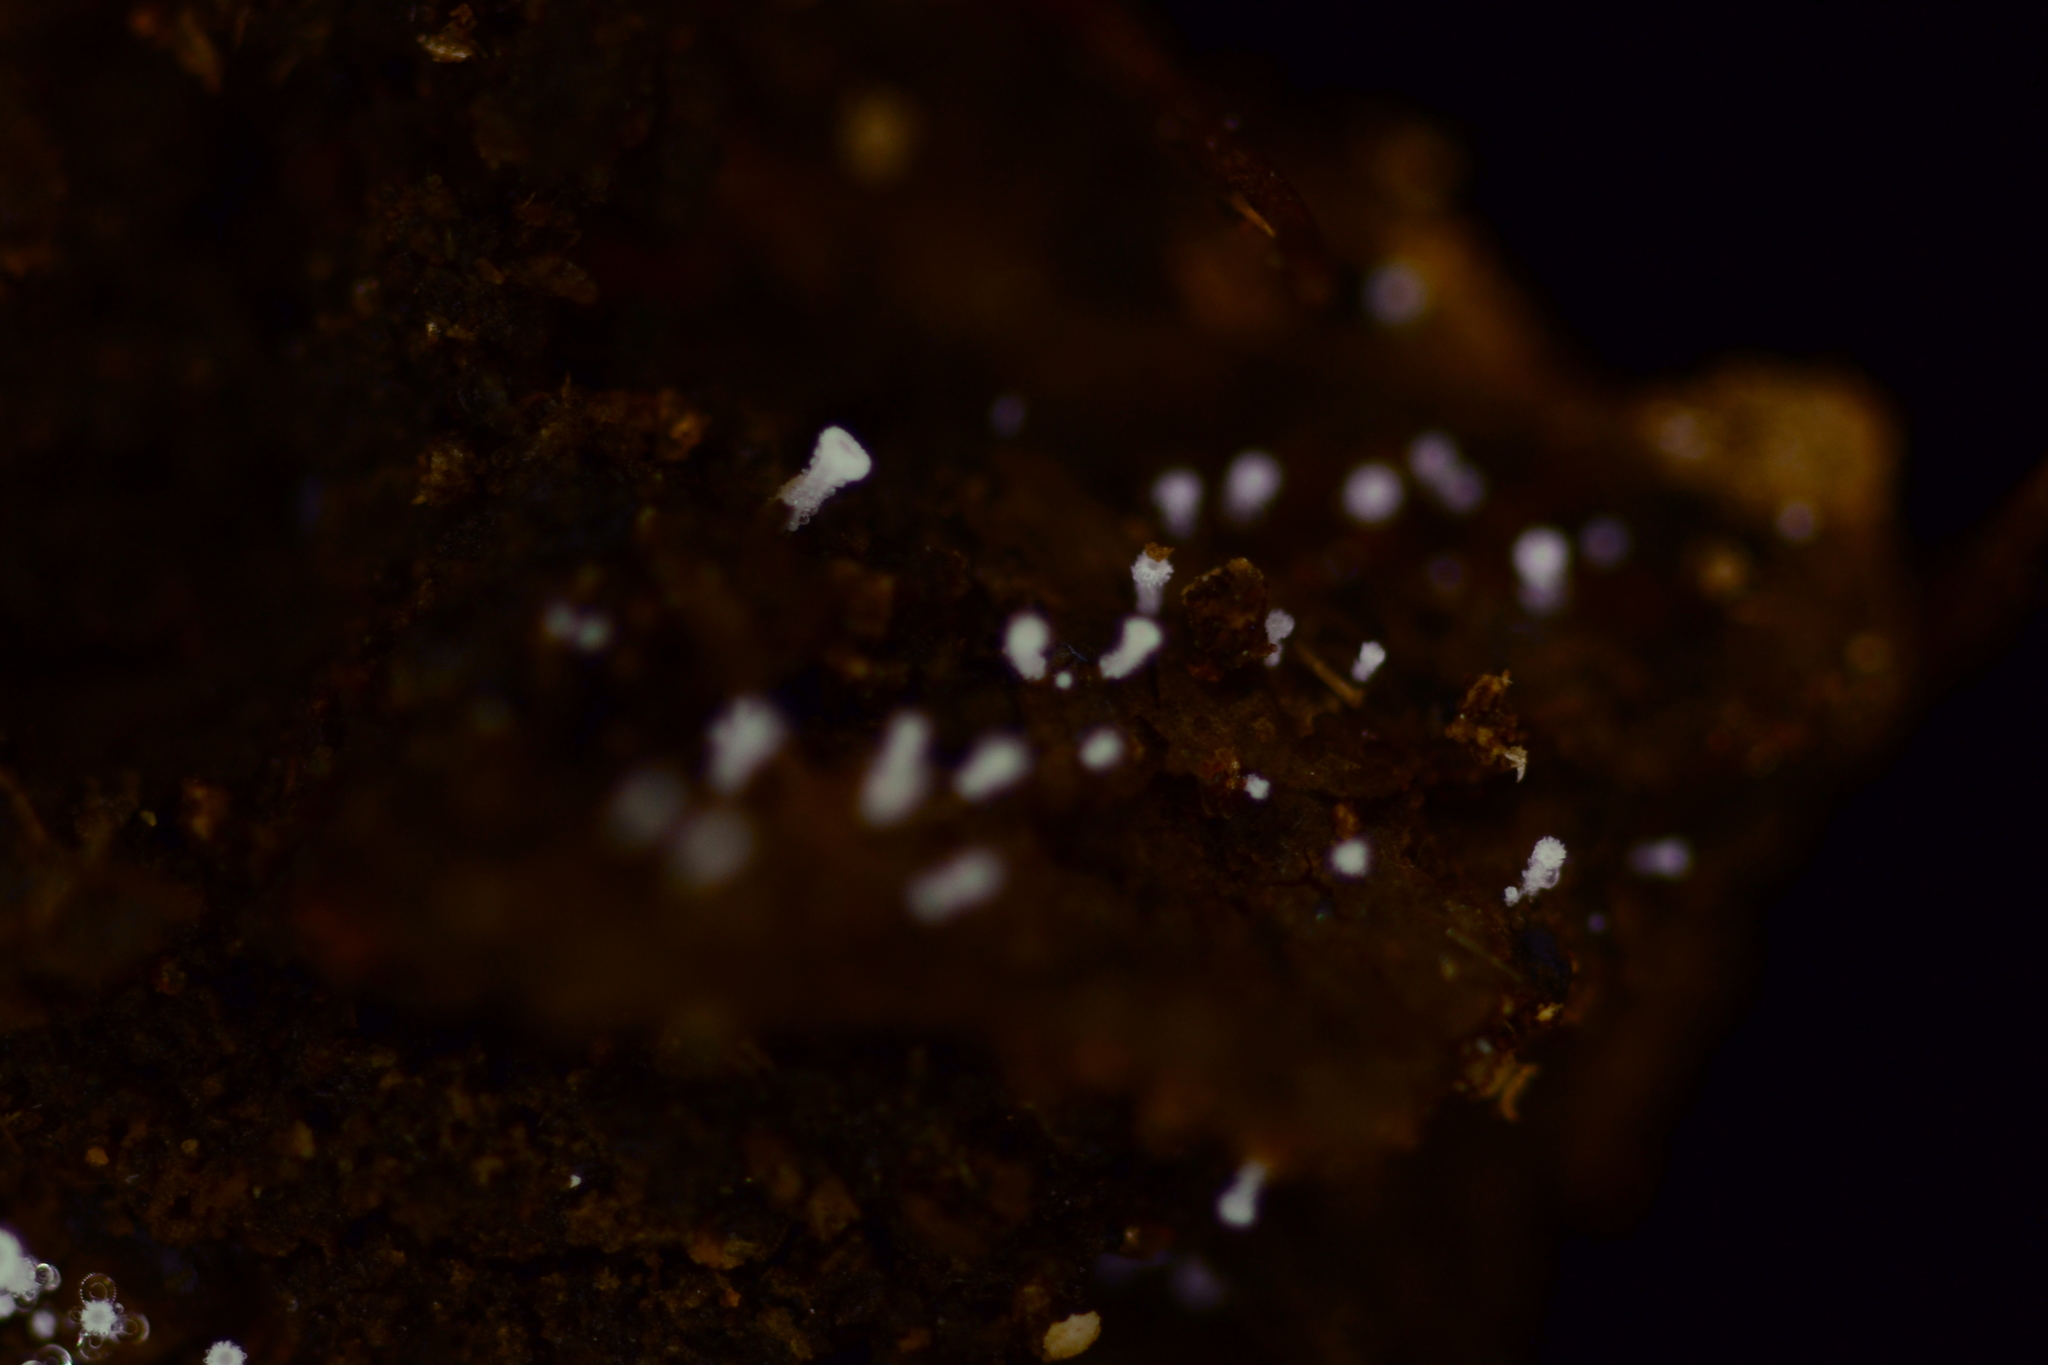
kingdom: Fungi
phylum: Ascomycota
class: Leotiomycetes
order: Helotiales
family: Lachnaceae
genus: Lachnum
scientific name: Lachnum impudicum
